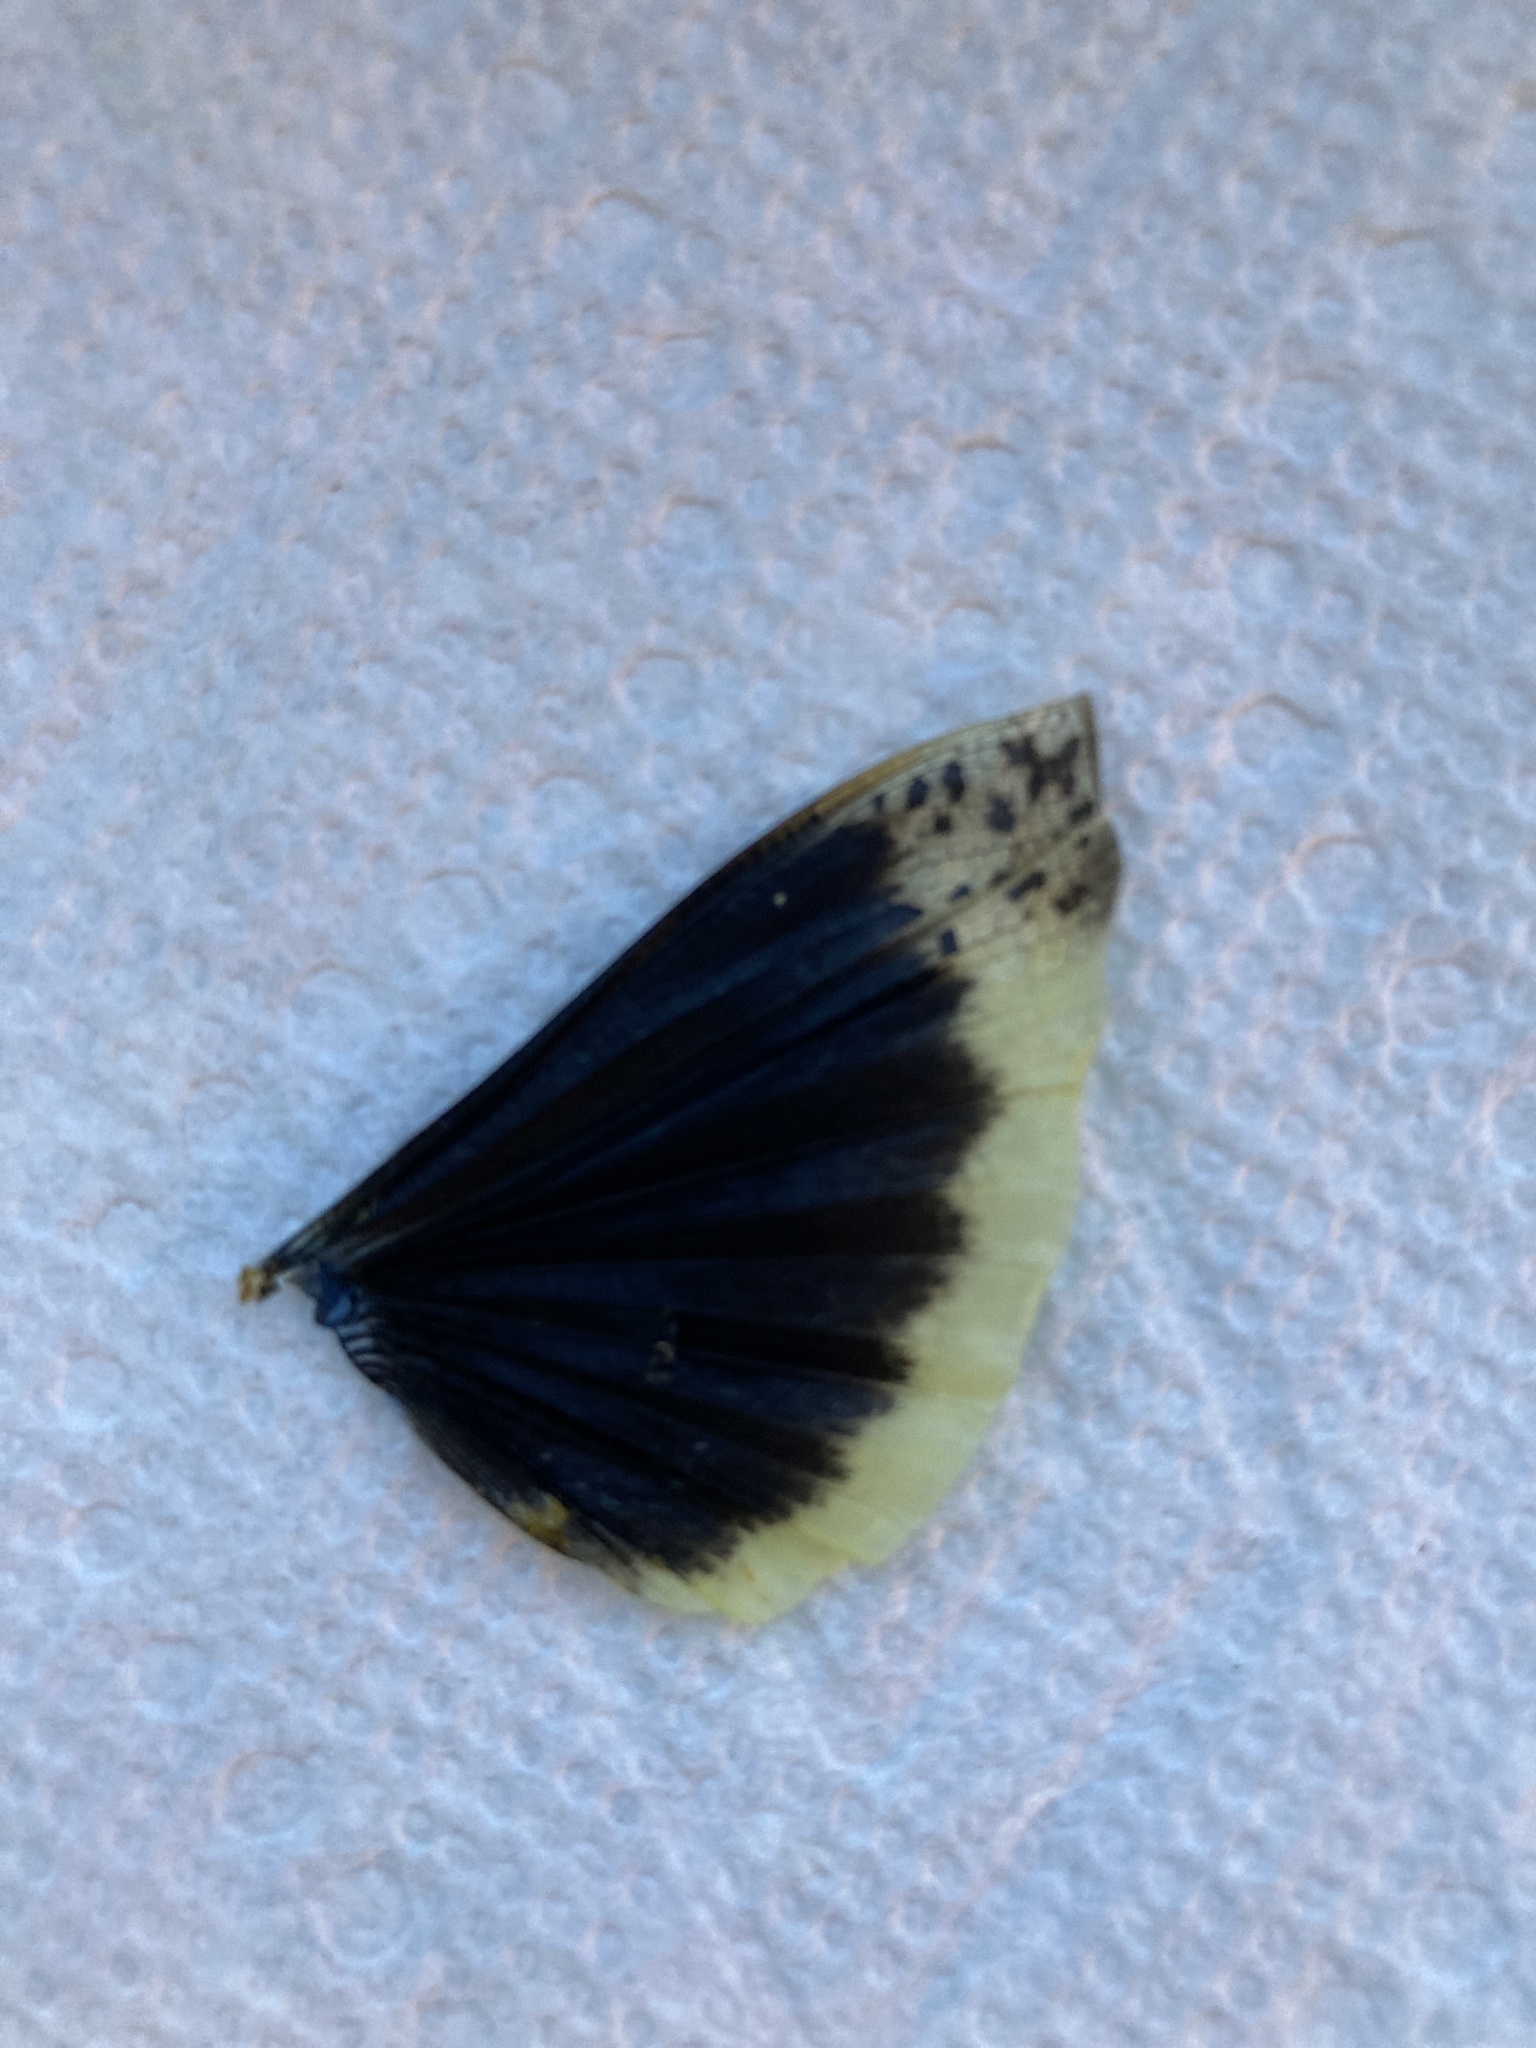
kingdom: Animalia
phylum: Arthropoda
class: Insecta
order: Orthoptera
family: Acrididae
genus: Dissosteira
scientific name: Dissosteira carolina
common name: Carolina grasshopper
